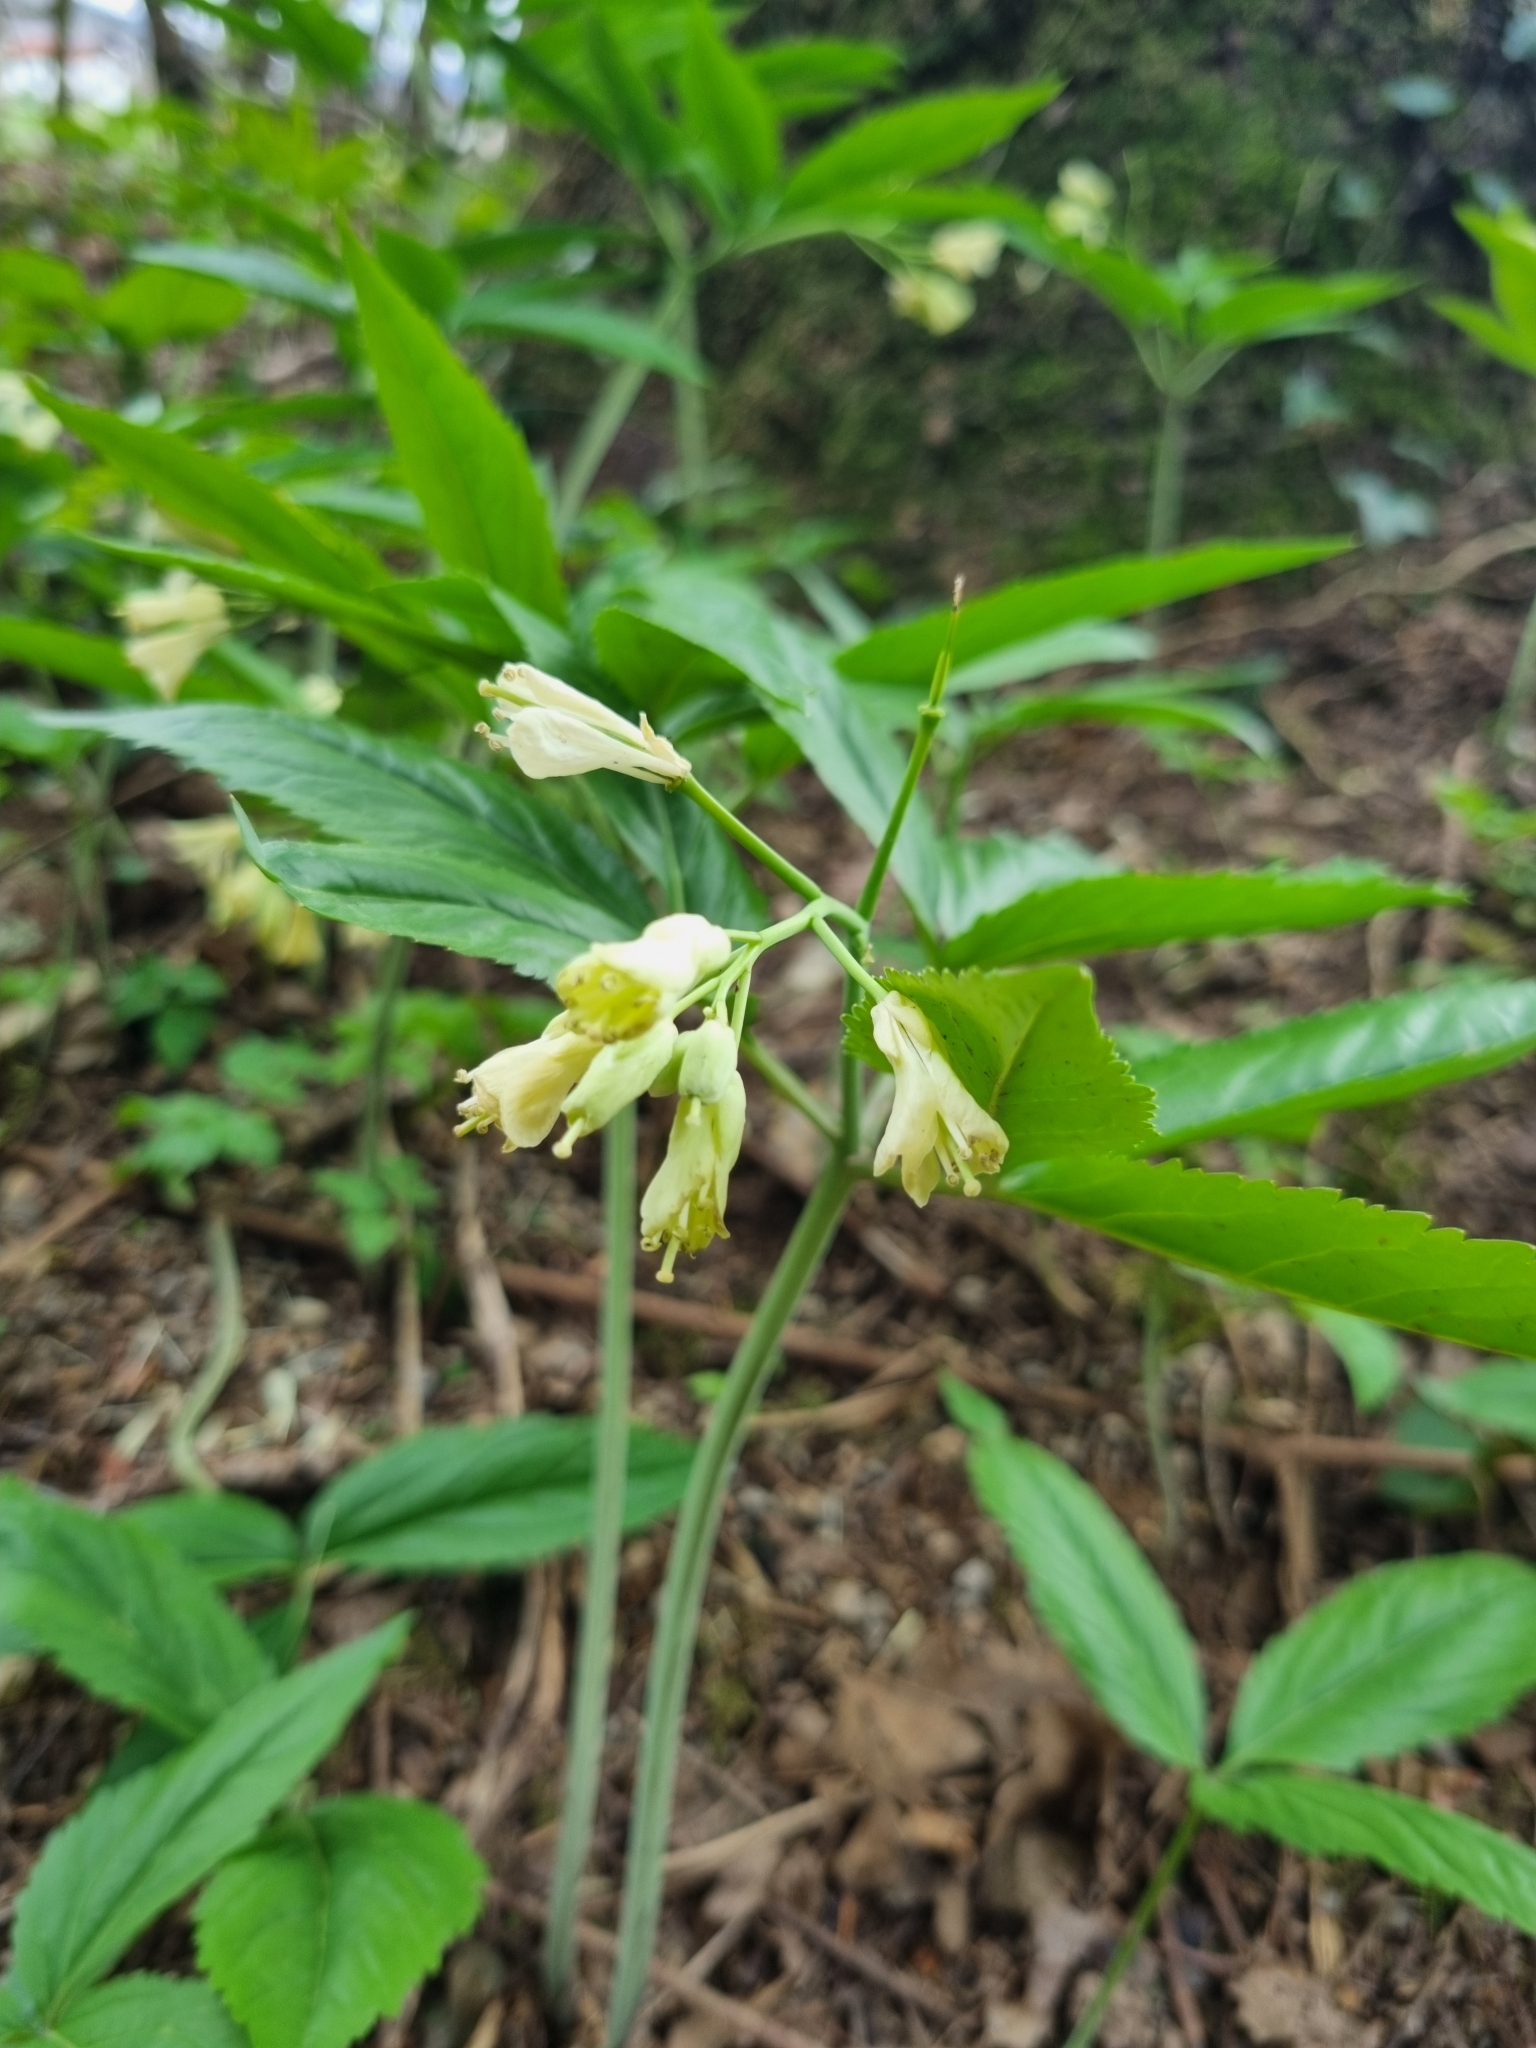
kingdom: Plantae
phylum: Tracheophyta
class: Magnoliopsida
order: Brassicales
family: Brassicaceae
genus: Cardamine
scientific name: Cardamine enneaphyllos
